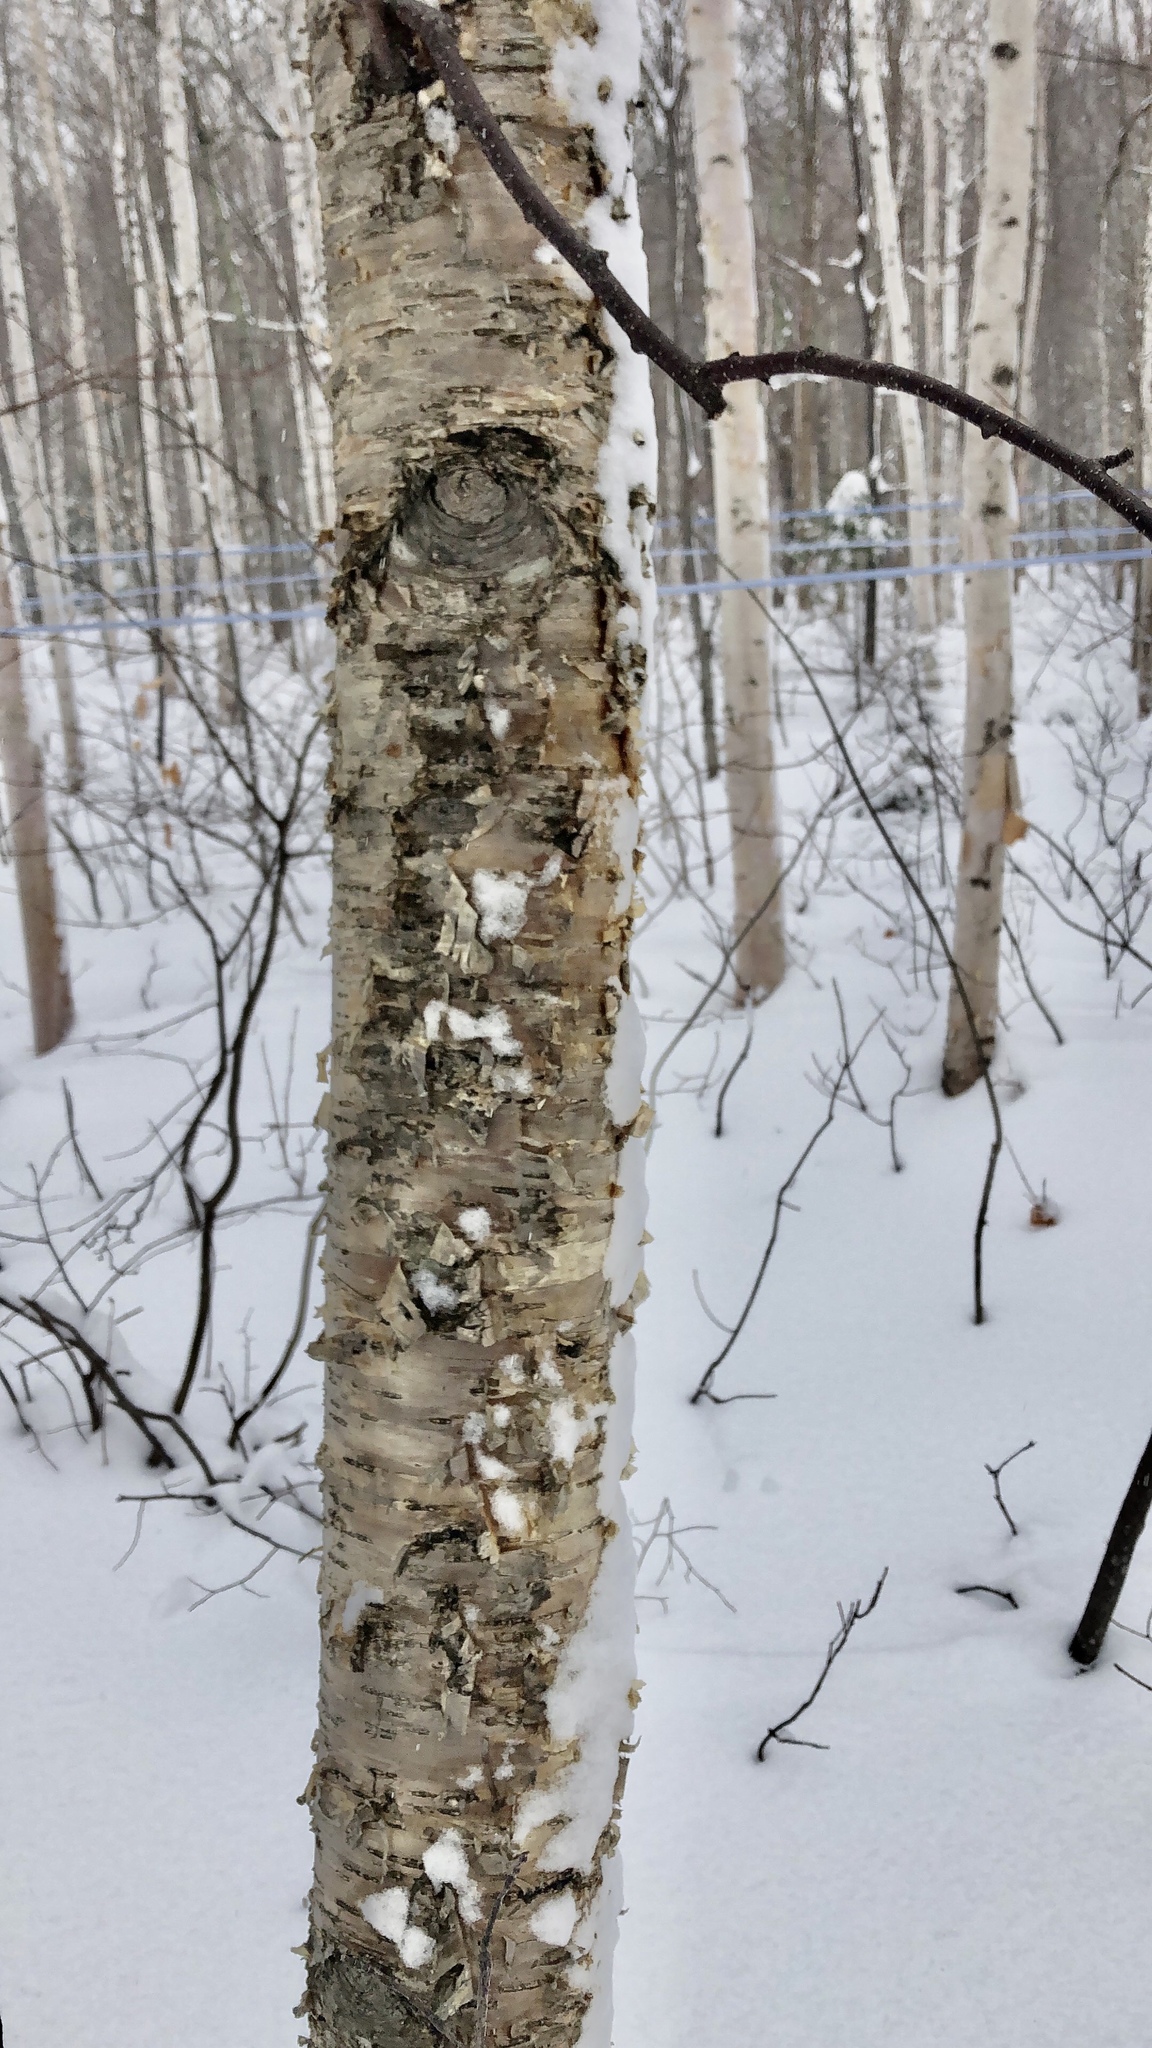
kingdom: Plantae
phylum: Tracheophyta
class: Magnoliopsida
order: Fagales
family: Betulaceae
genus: Betula
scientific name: Betula alleghaniensis
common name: Yellow birch
